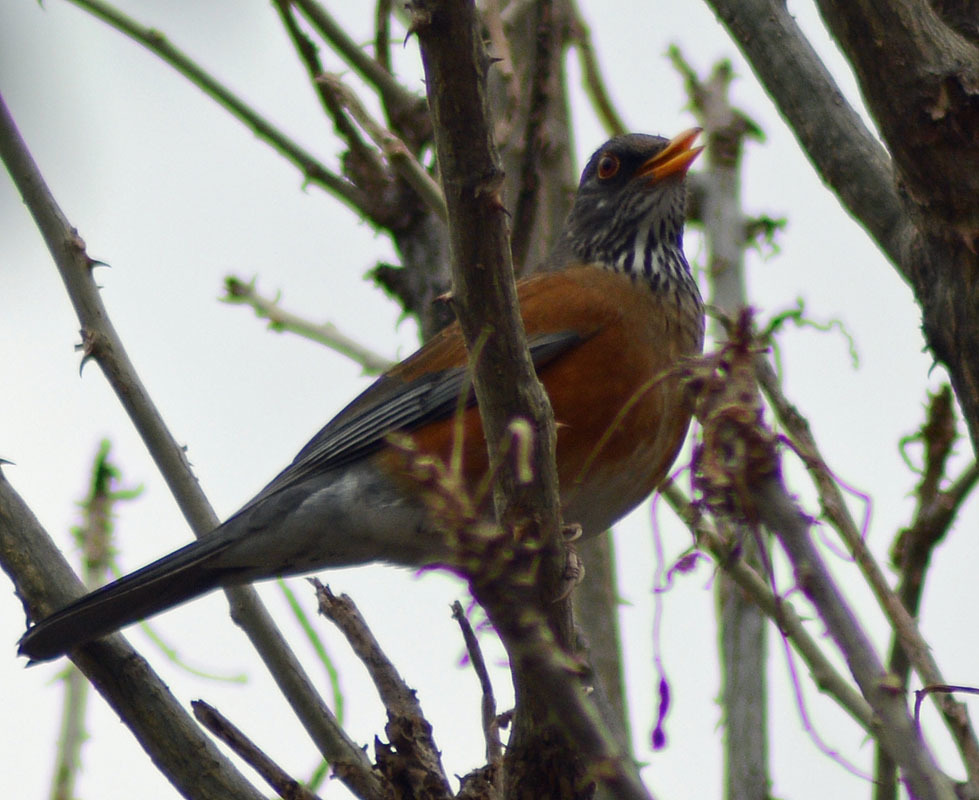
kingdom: Animalia
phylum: Chordata
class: Aves
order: Passeriformes
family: Turdidae
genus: Turdus
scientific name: Turdus rufopalliatus
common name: Rufous-backed robin
